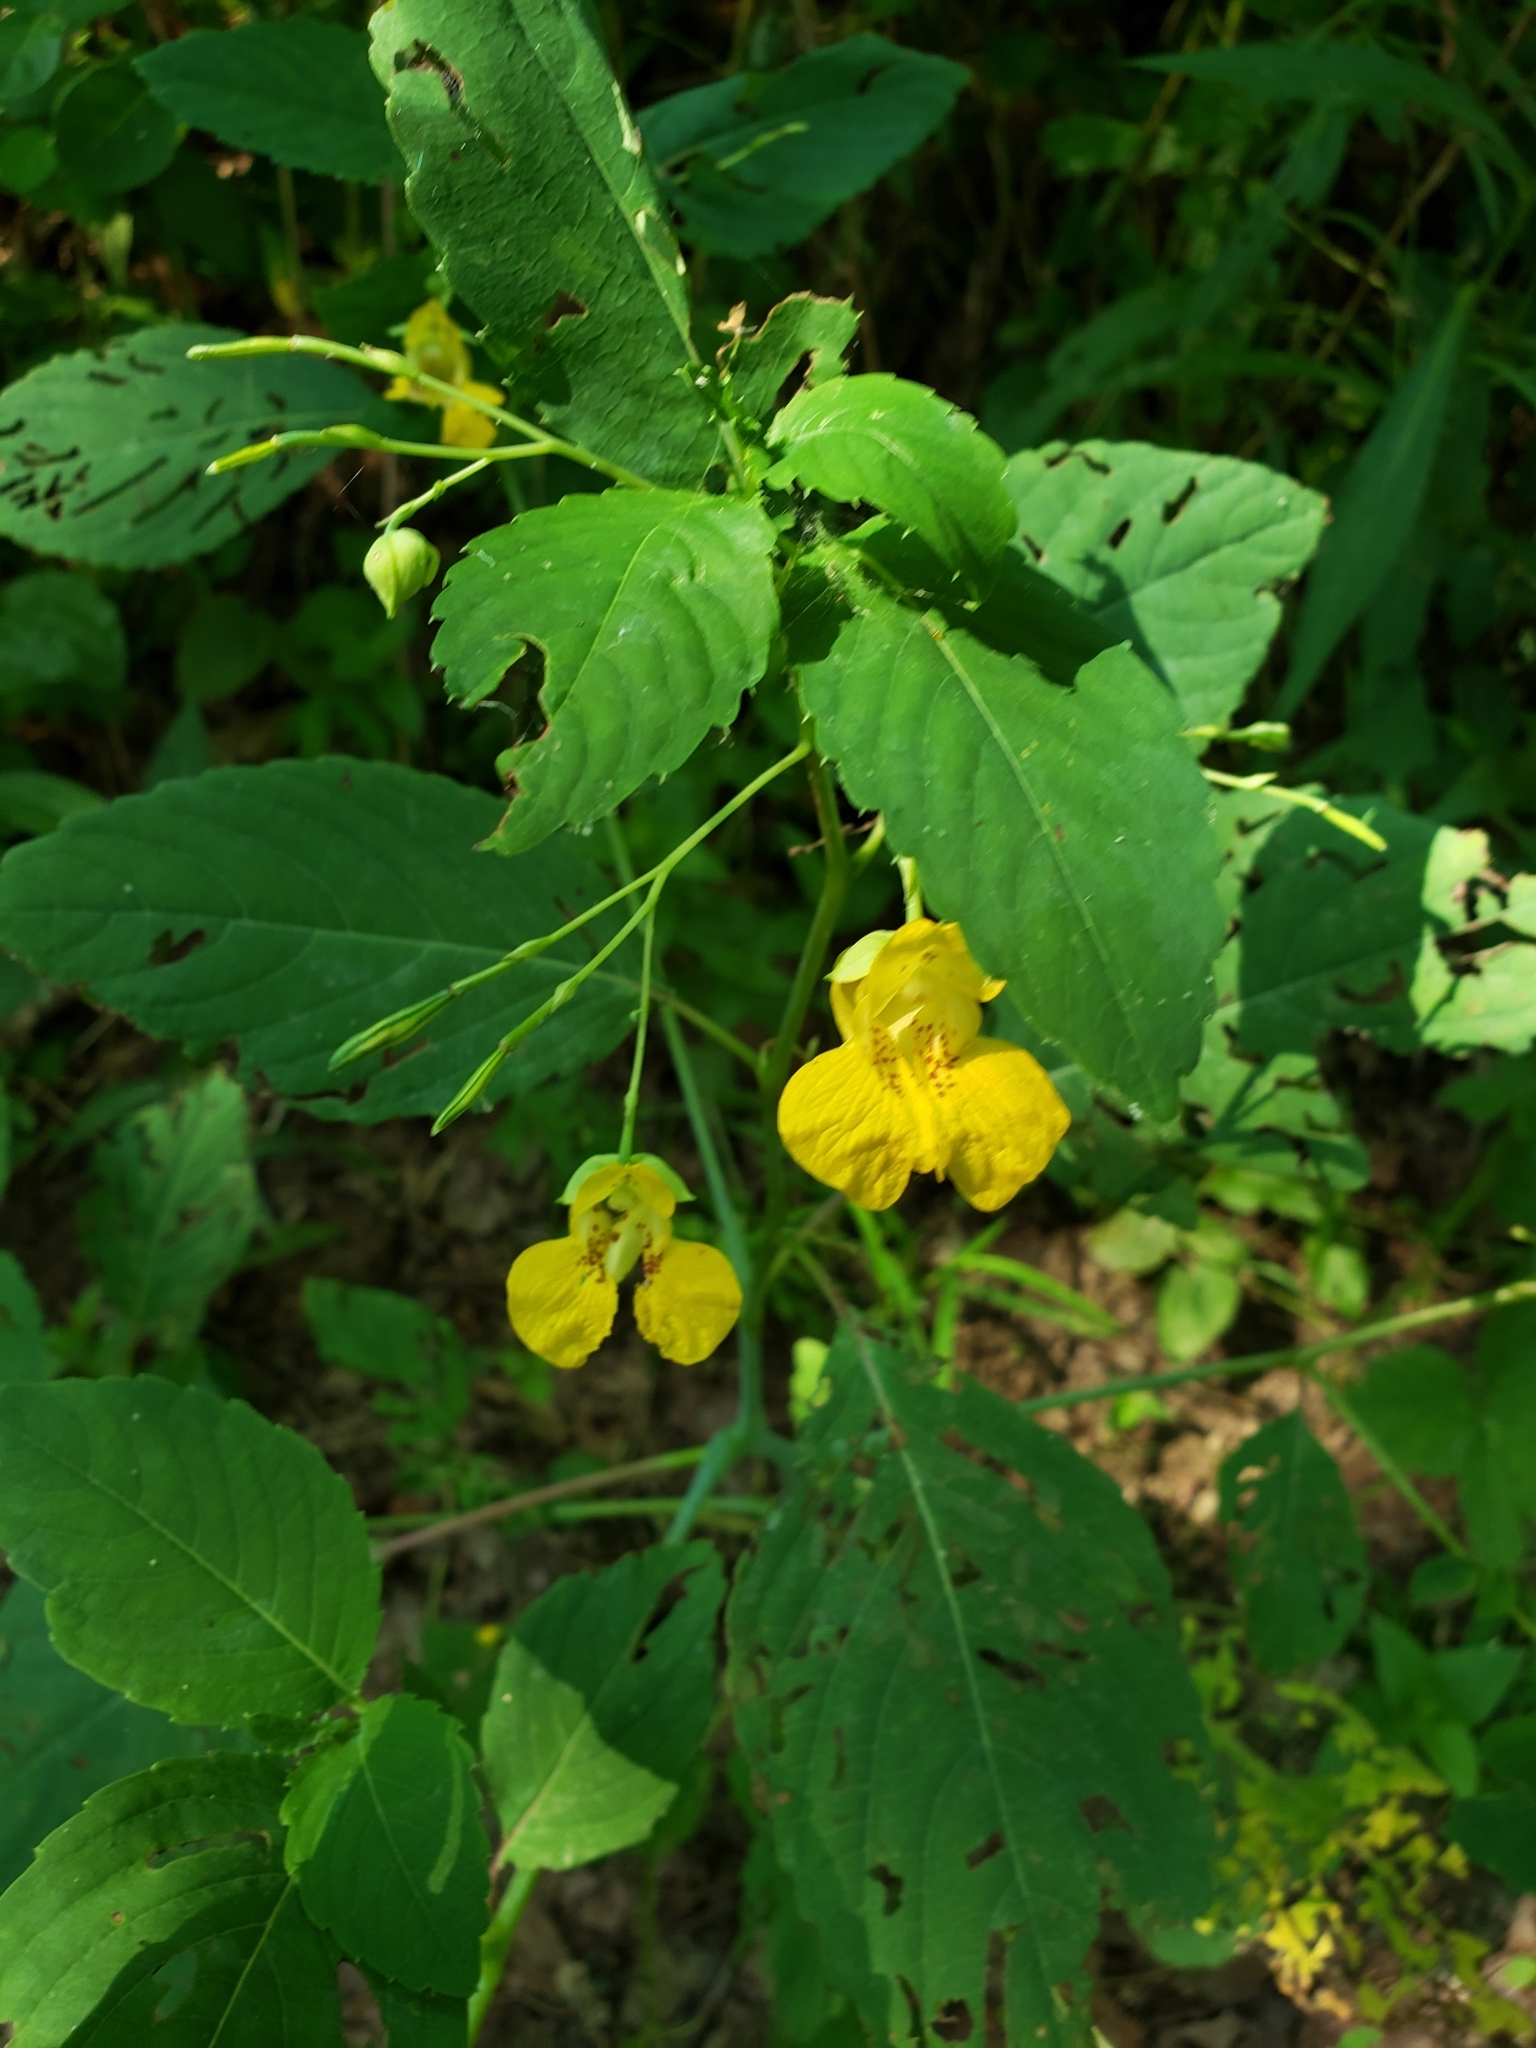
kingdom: Plantae
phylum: Tracheophyta
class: Magnoliopsida
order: Ericales
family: Balsaminaceae
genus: Impatiens
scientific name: Impatiens pallida
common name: Pale snapweed
